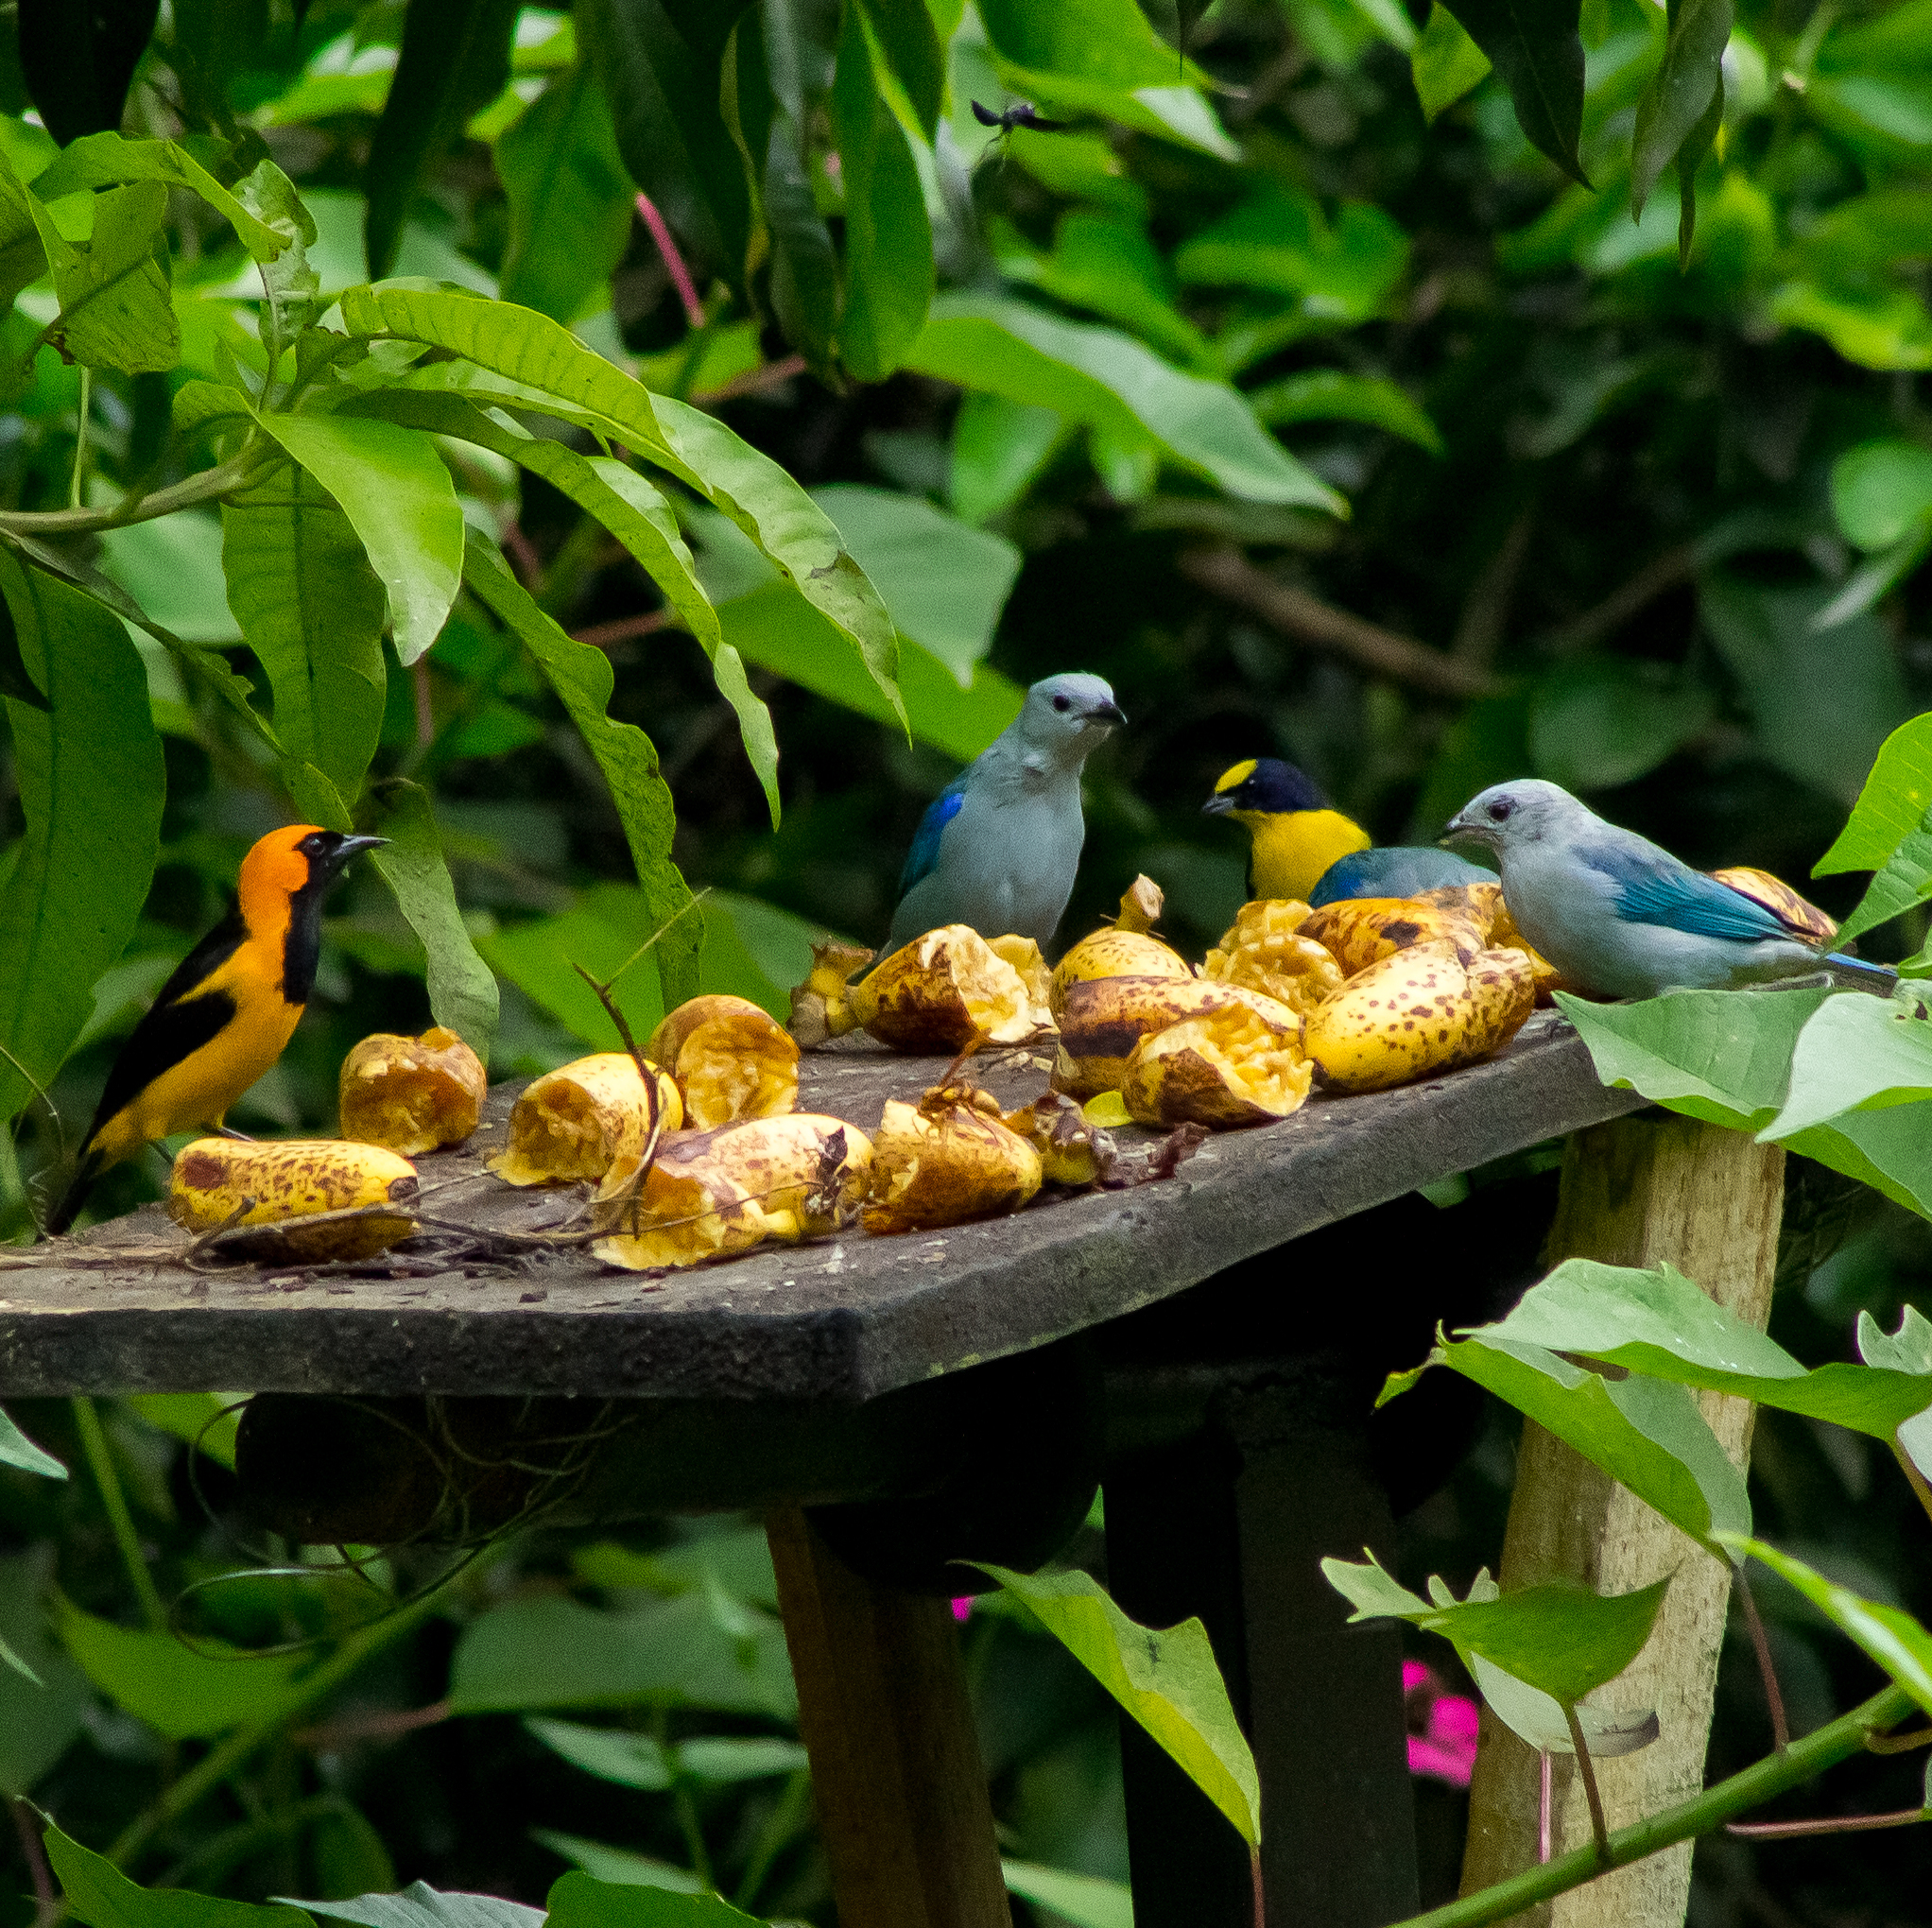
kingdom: Animalia
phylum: Chordata
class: Aves
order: Passeriformes
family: Icteridae
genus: Icterus
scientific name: Icterus auricapillus
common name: Orange-crowned oriole
